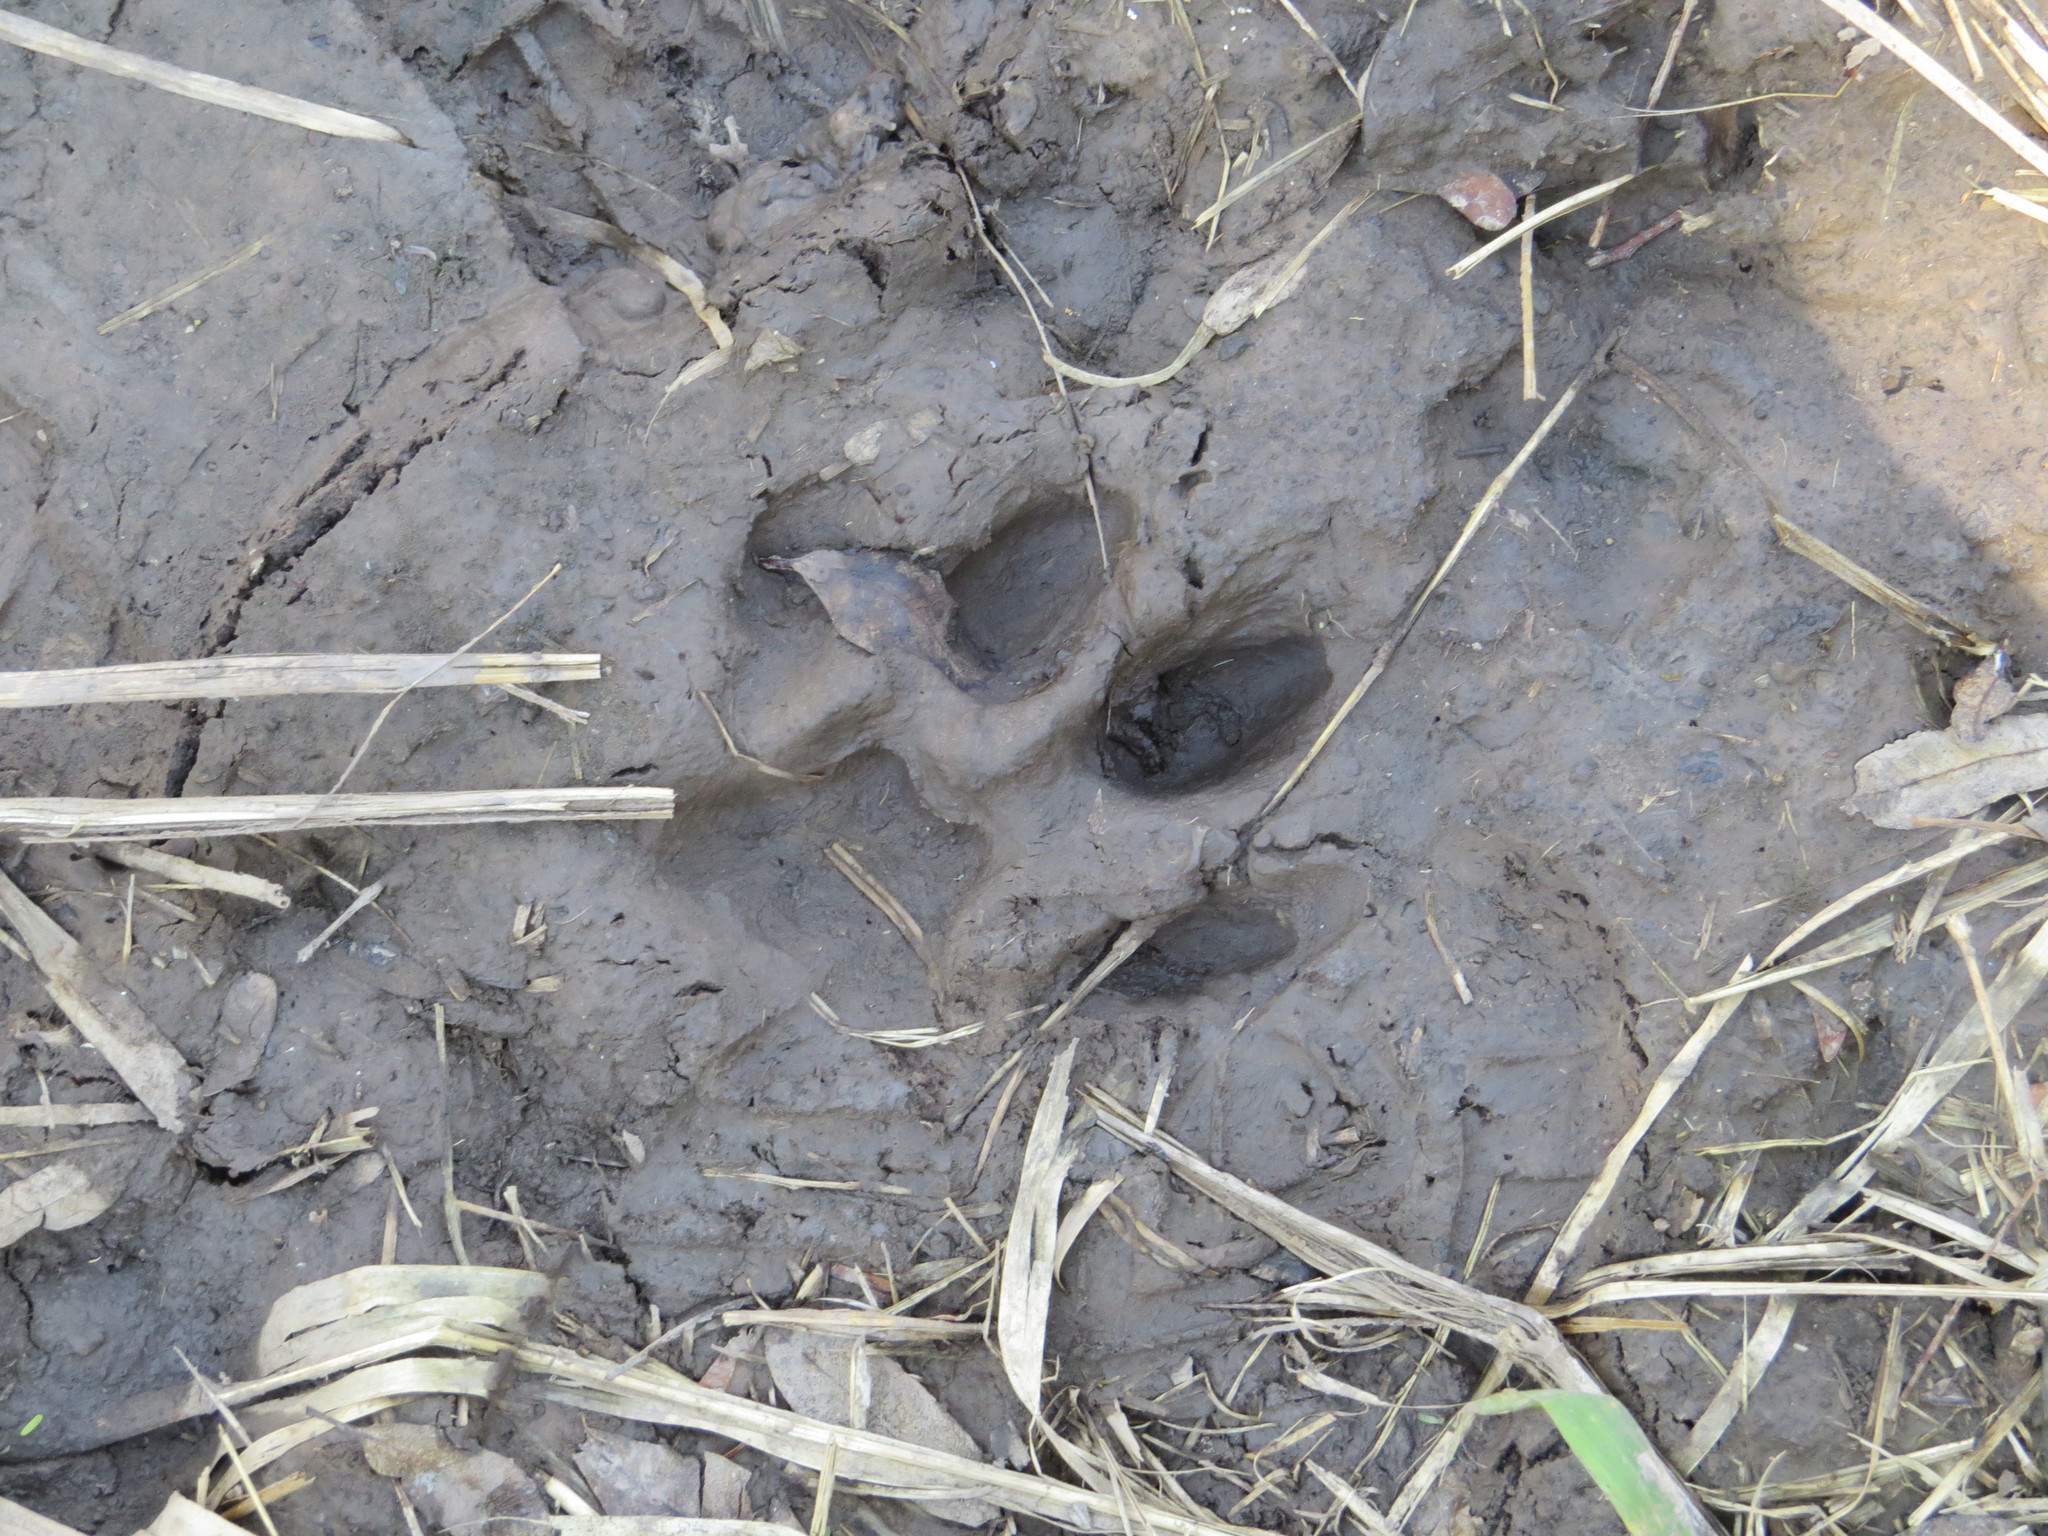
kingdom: Animalia
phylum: Chordata
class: Mammalia
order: Carnivora
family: Felidae
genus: Puma
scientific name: Puma concolor
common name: Puma
